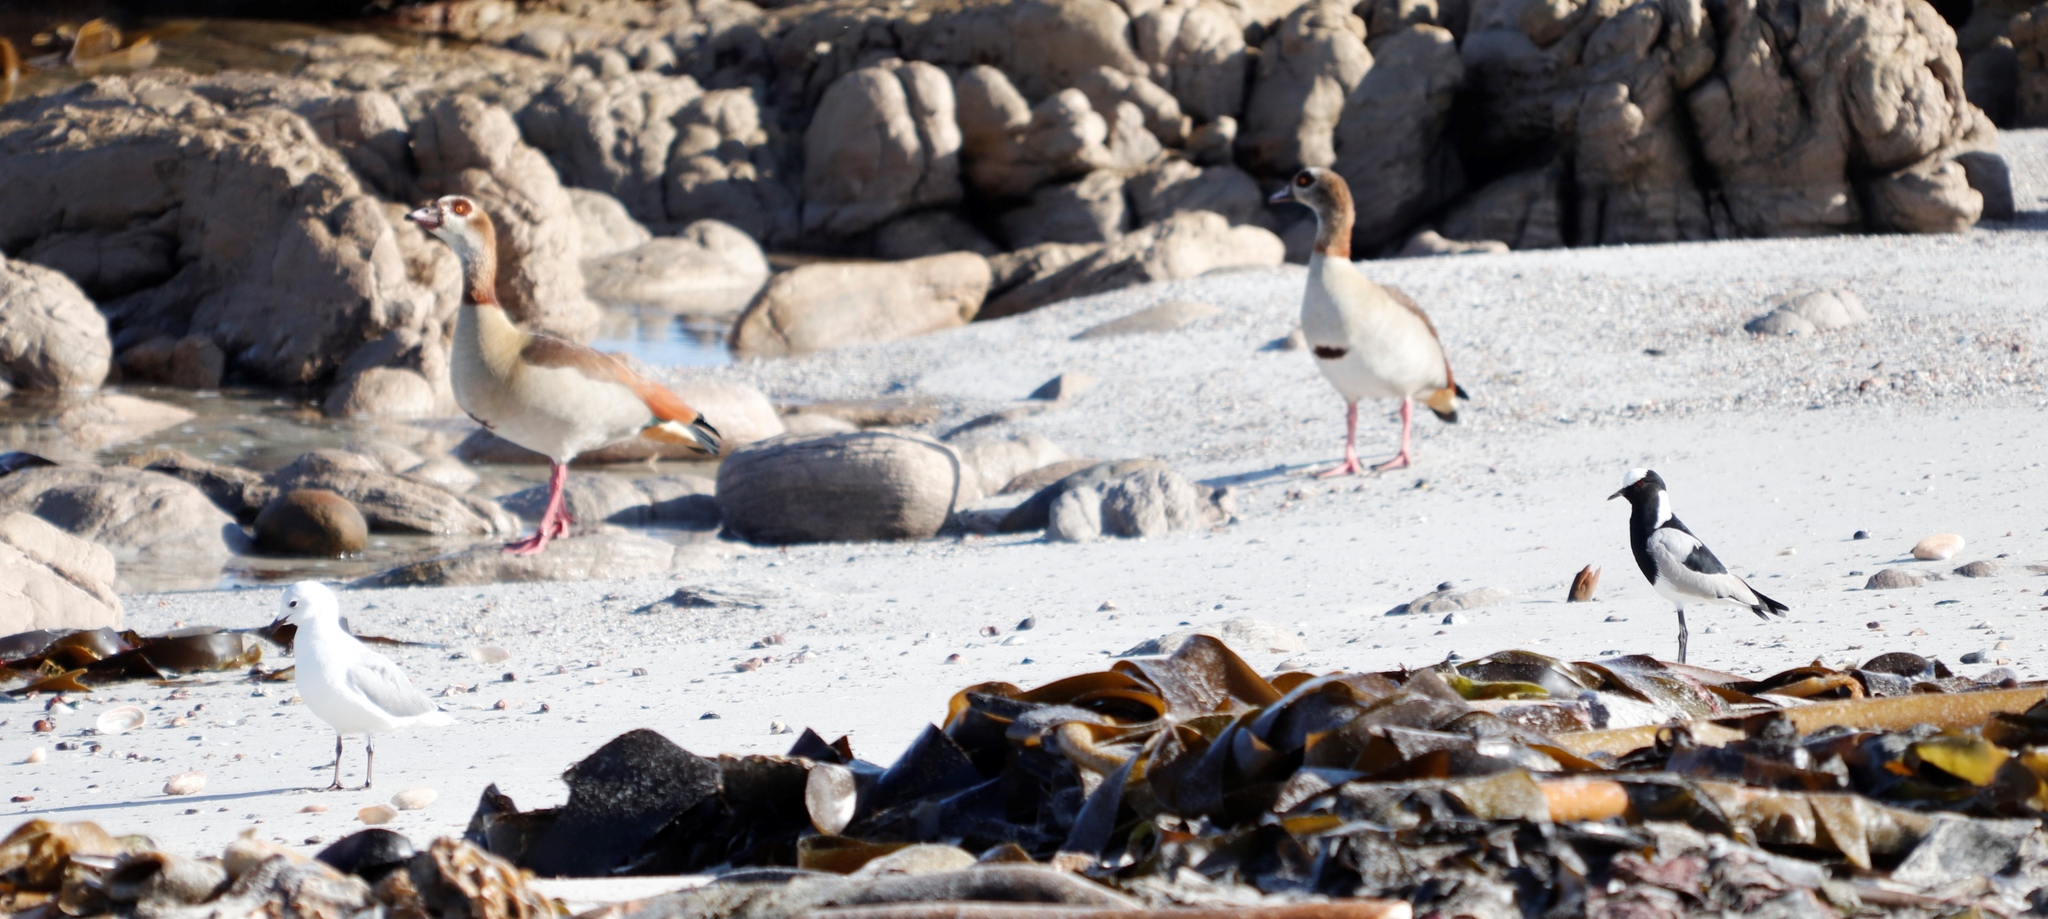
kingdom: Animalia
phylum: Chordata
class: Aves
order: Anseriformes
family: Anatidae
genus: Alopochen
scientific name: Alopochen aegyptiaca
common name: Egyptian goose
